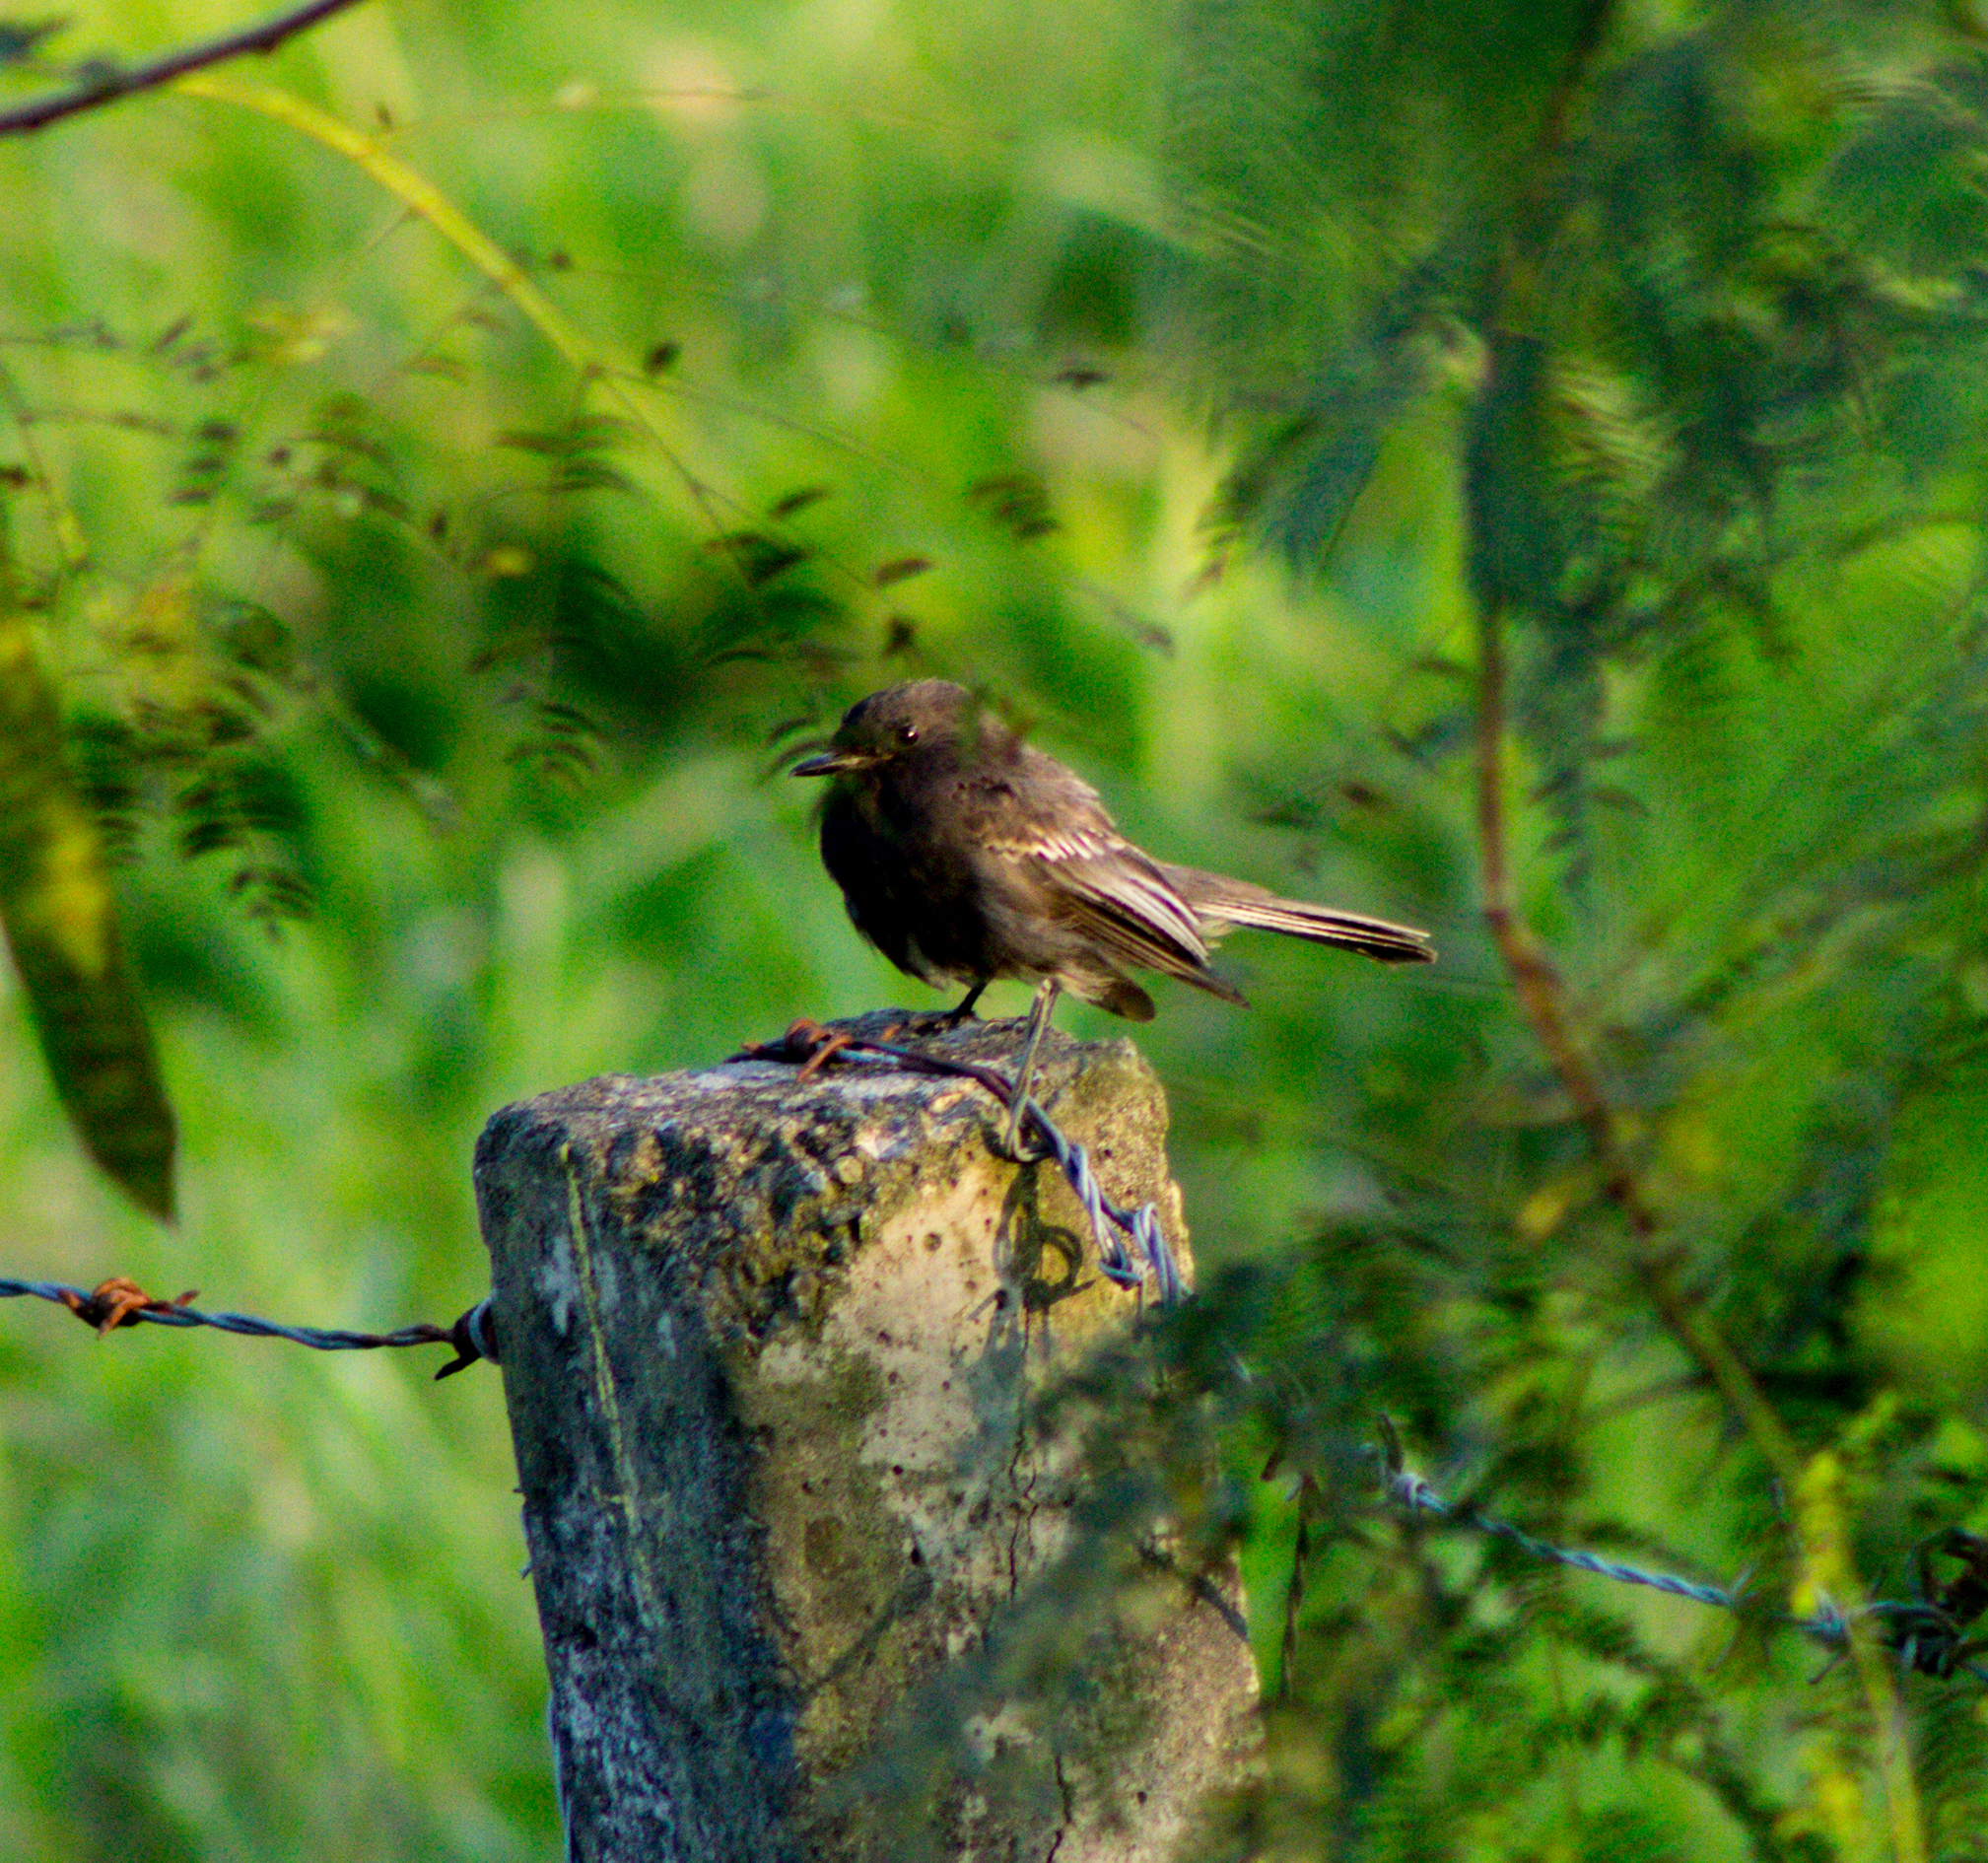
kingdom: Animalia
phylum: Chordata
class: Aves
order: Passeriformes
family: Tyrannidae
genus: Sayornis
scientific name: Sayornis nigricans
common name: Black phoebe
